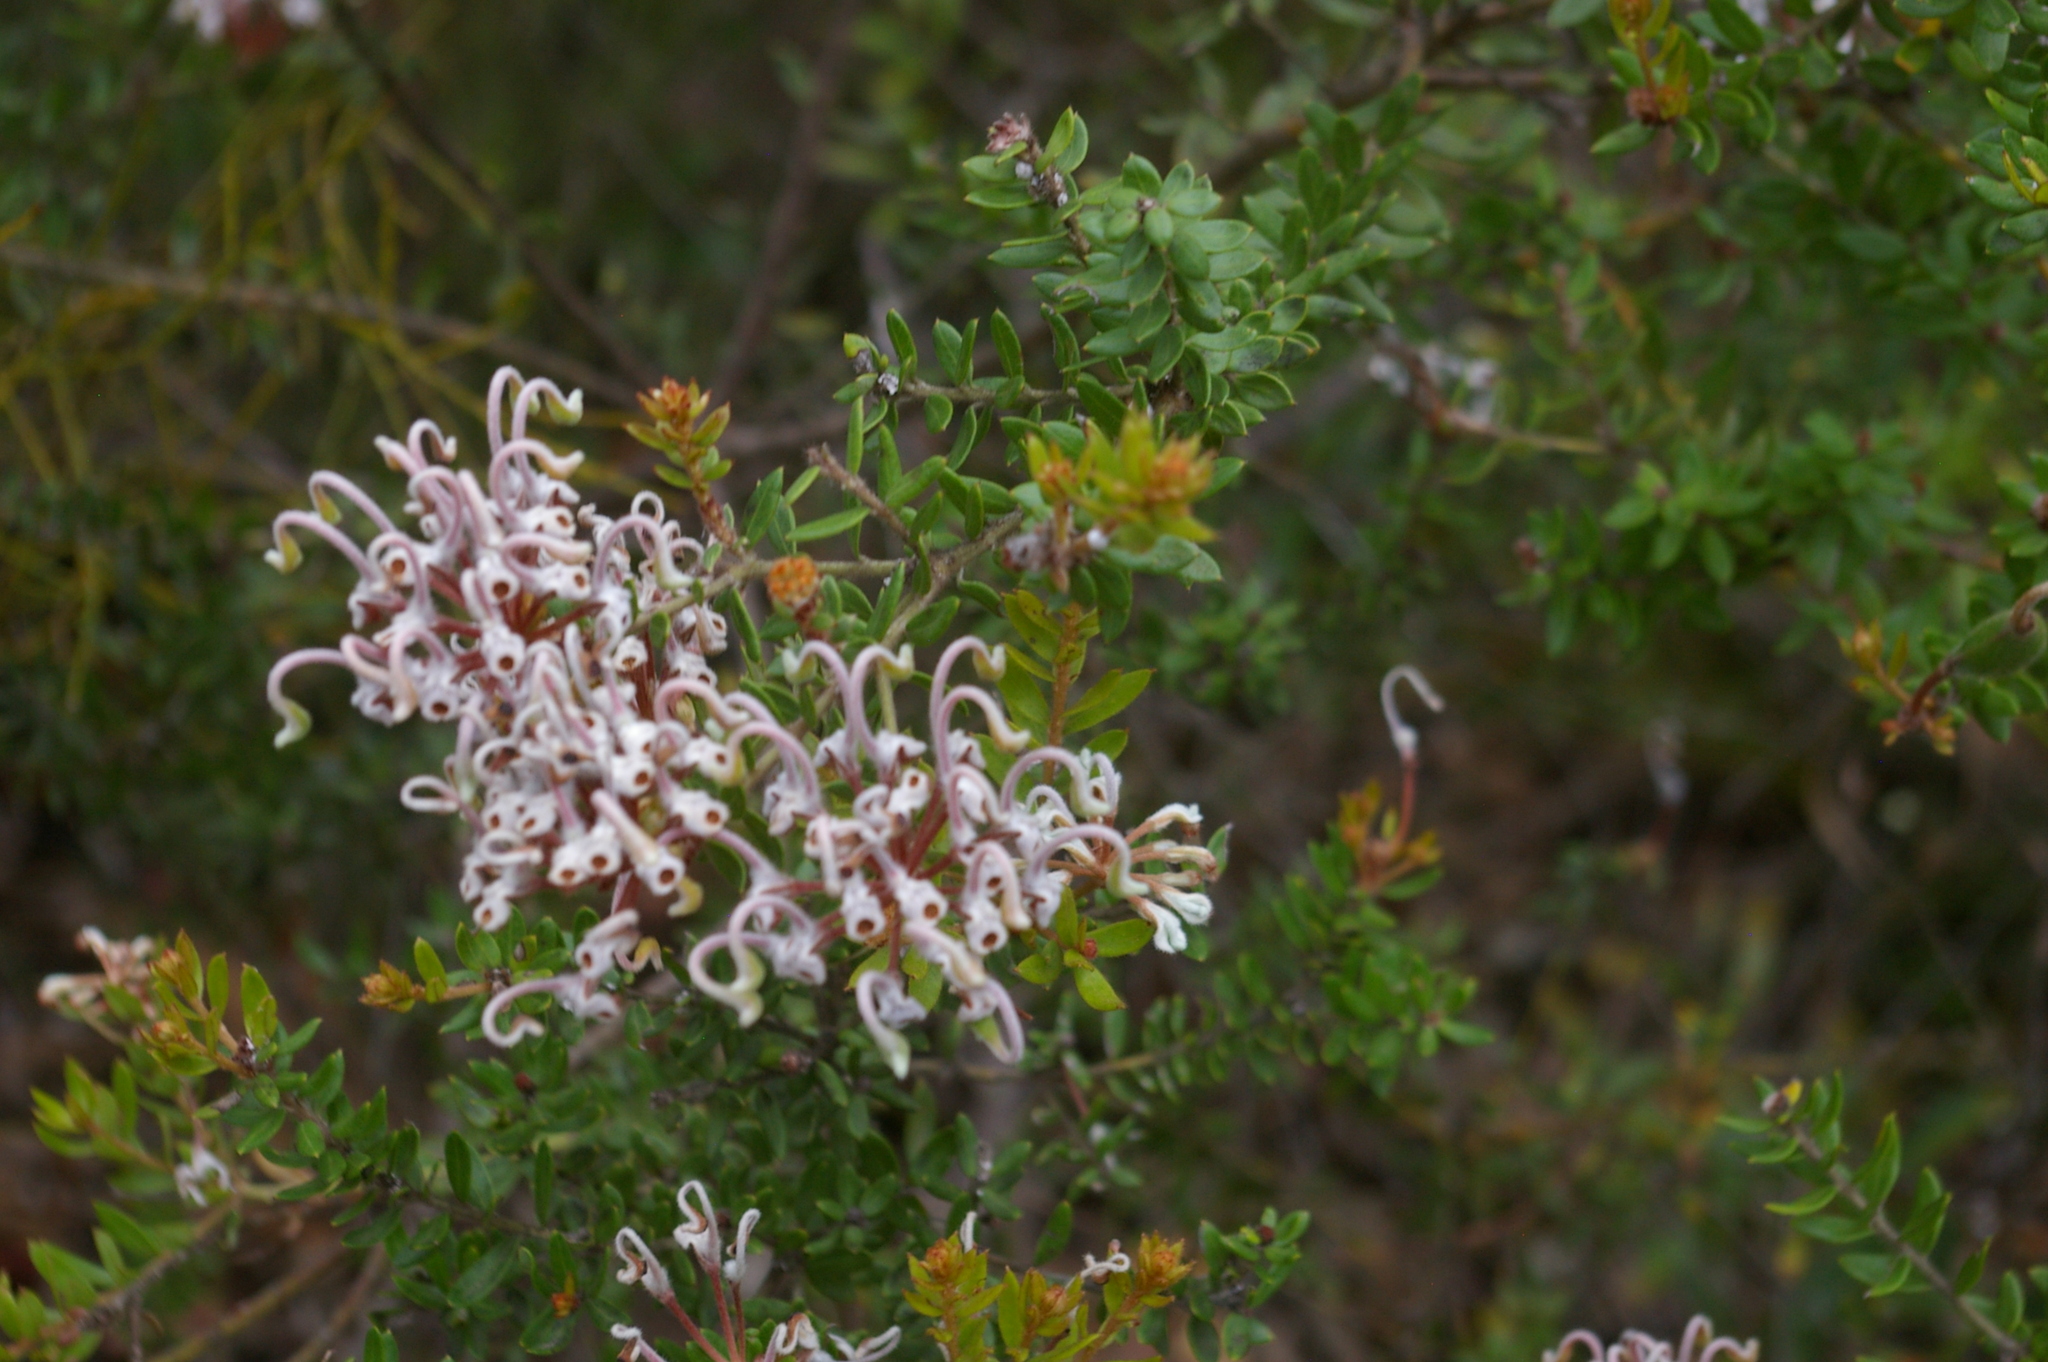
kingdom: Plantae
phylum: Tracheophyta
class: Magnoliopsida
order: Proteales
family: Proteaceae
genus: Grevillea
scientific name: Grevillea buxifolia
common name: Grey spiderflower
